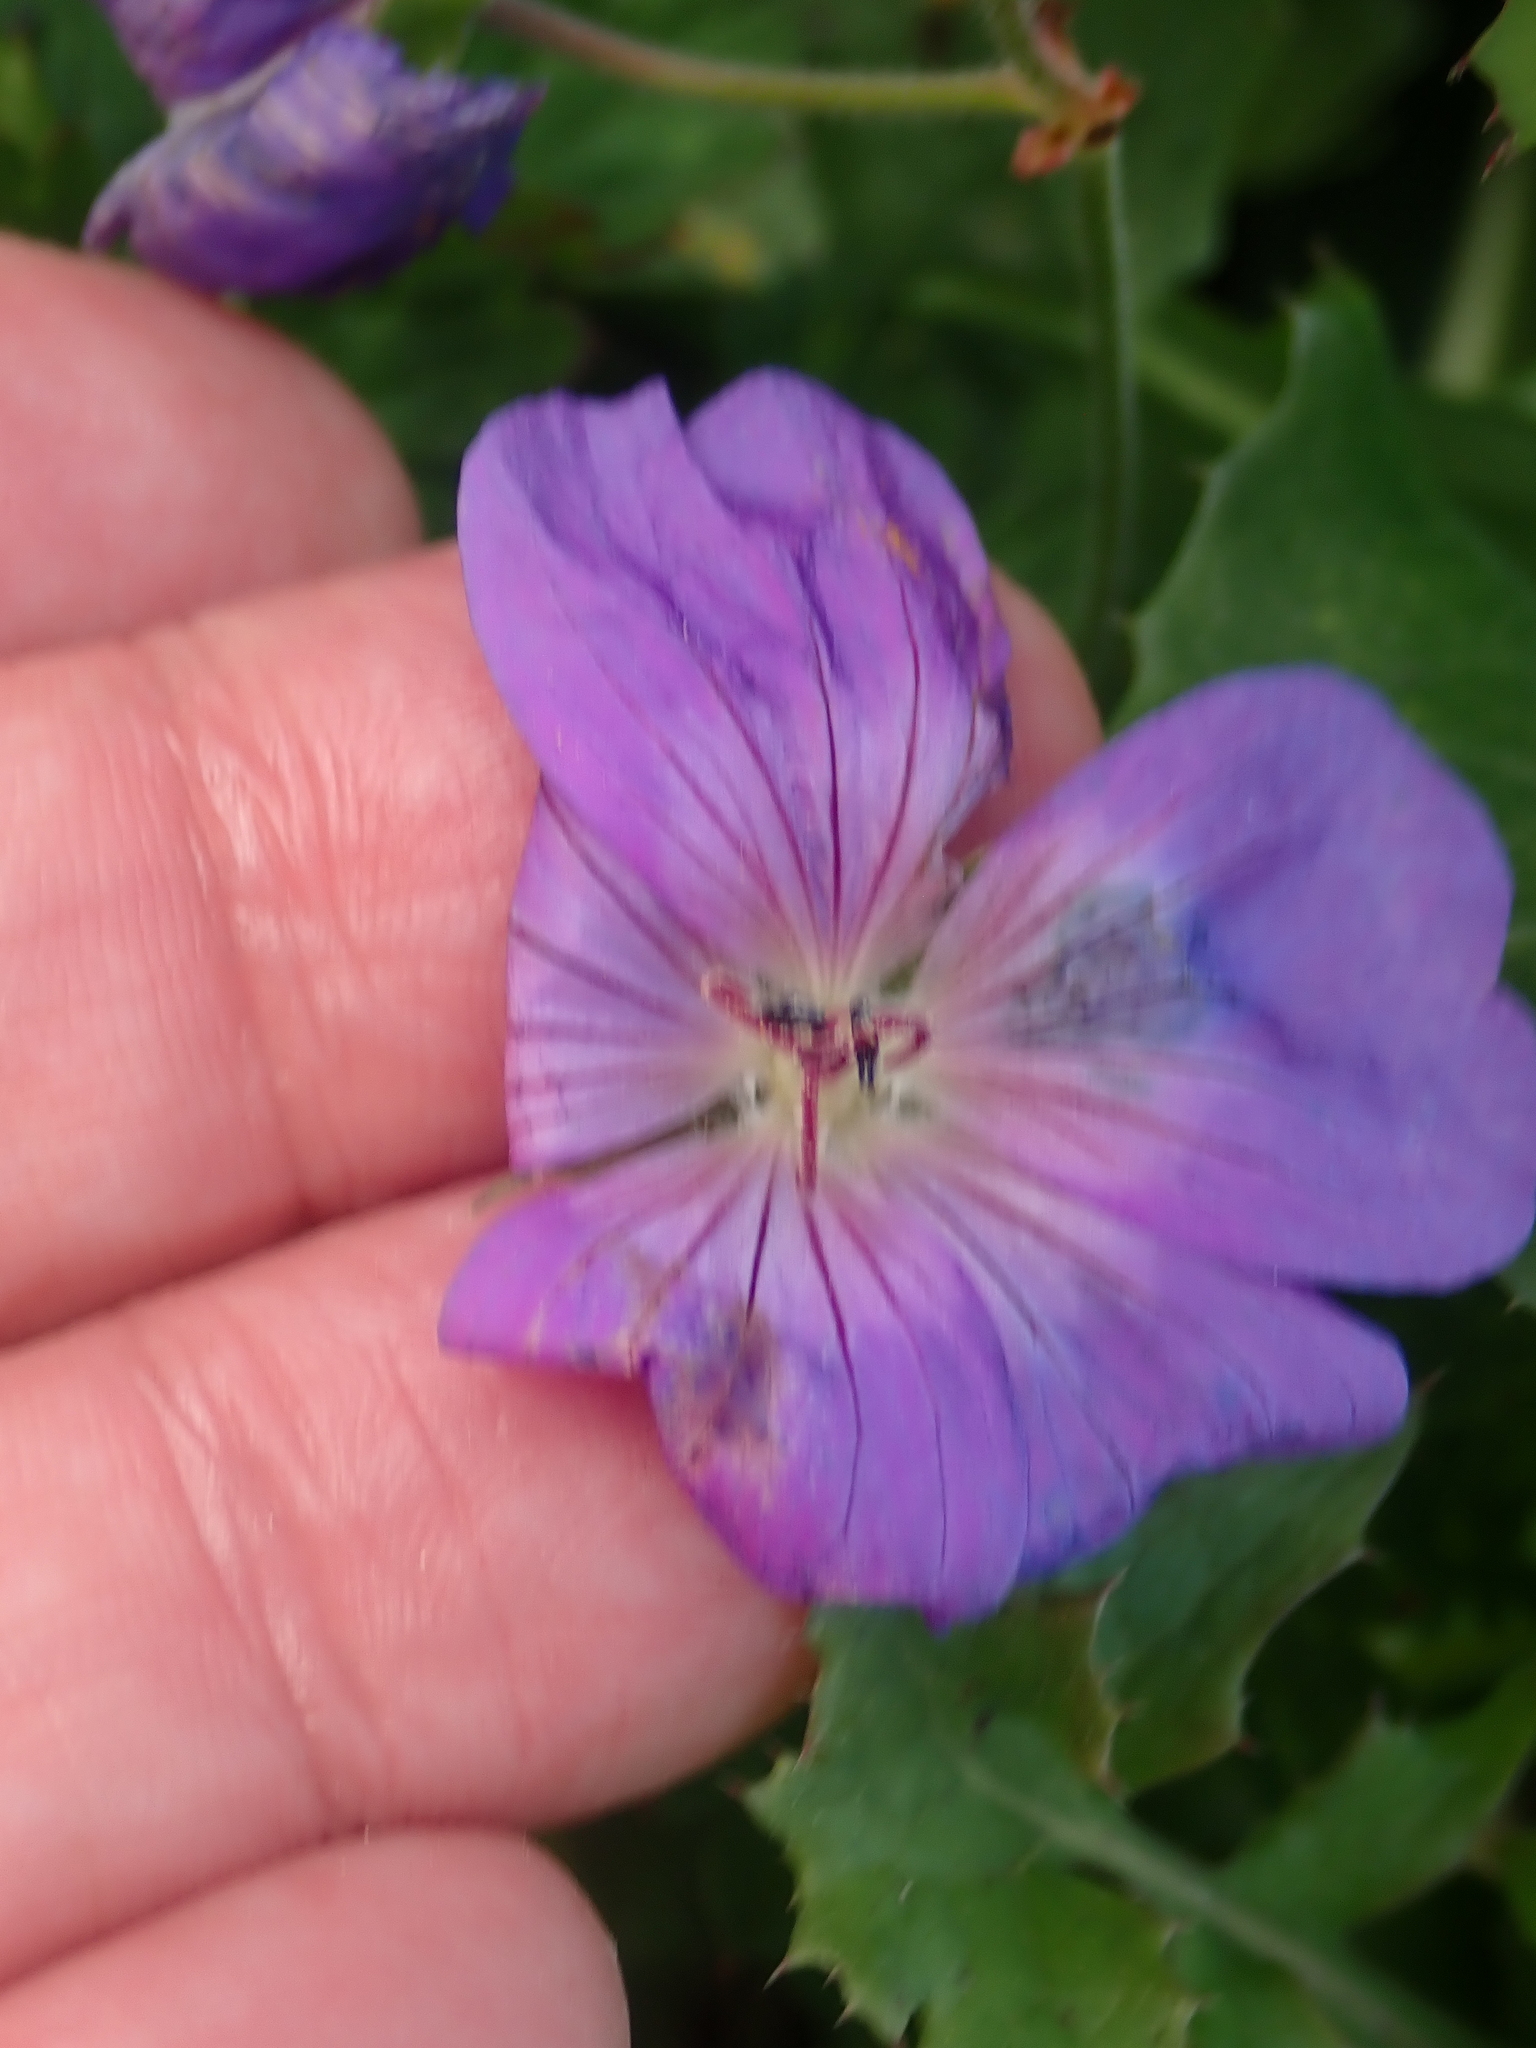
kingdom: Plantae
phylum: Tracheophyta
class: Magnoliopsida
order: Geraniales
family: Geraniaceae
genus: Geranium
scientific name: Geranium wallichianum
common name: Buxton's blue
